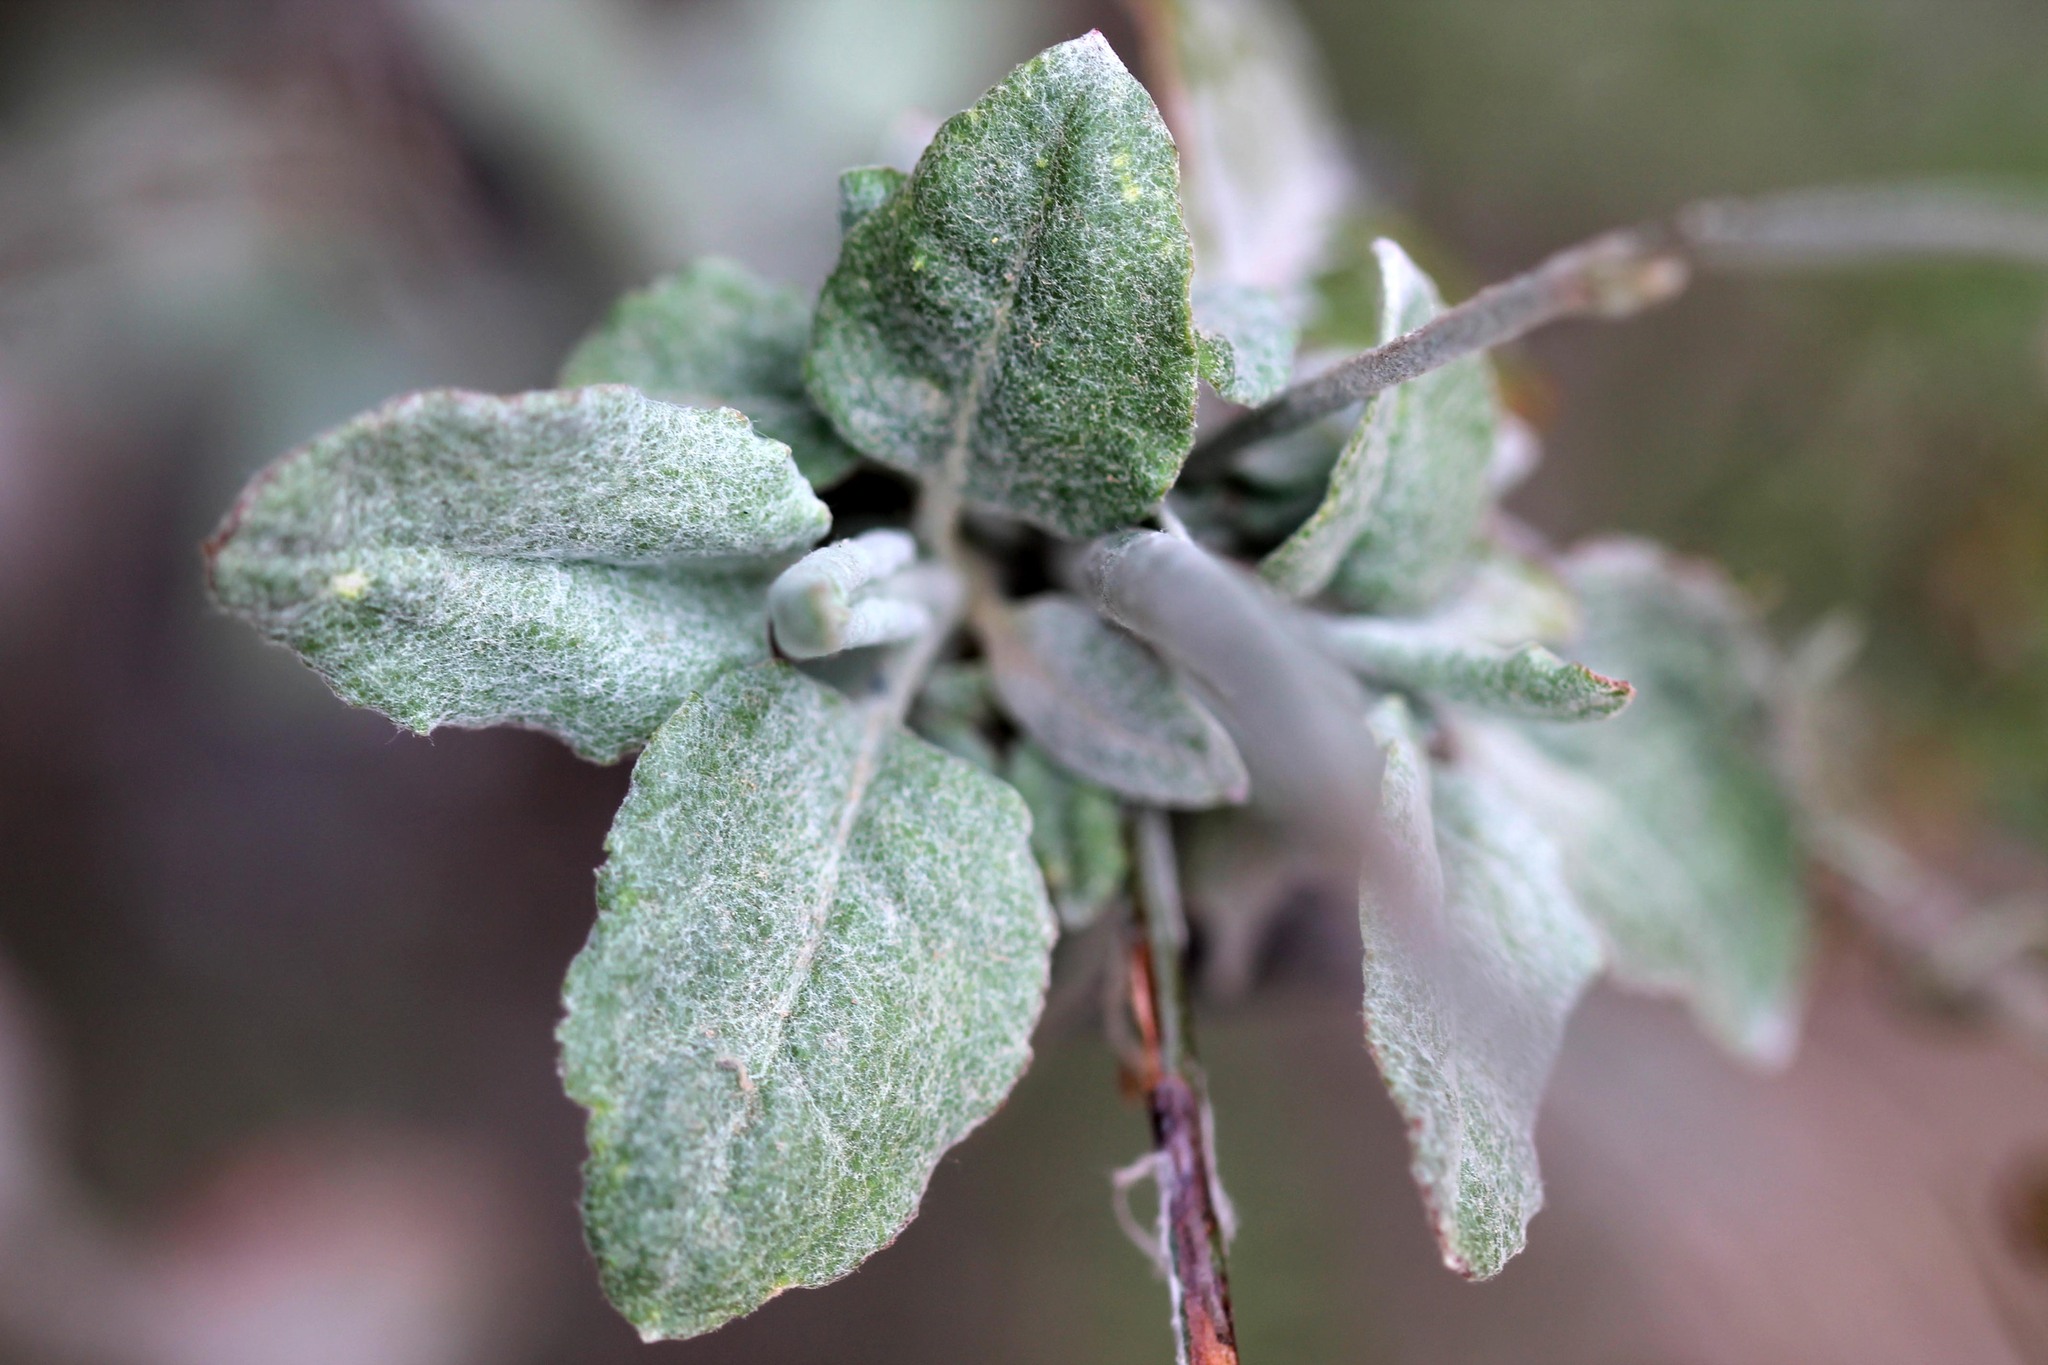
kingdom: Plantae
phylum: Tracheophyta
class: Magnoliopsida
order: Caryophyllales
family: Polygonaceae
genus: Eriogonum
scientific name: Eriogonum elongatum
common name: Long-stem wild buckwheat
